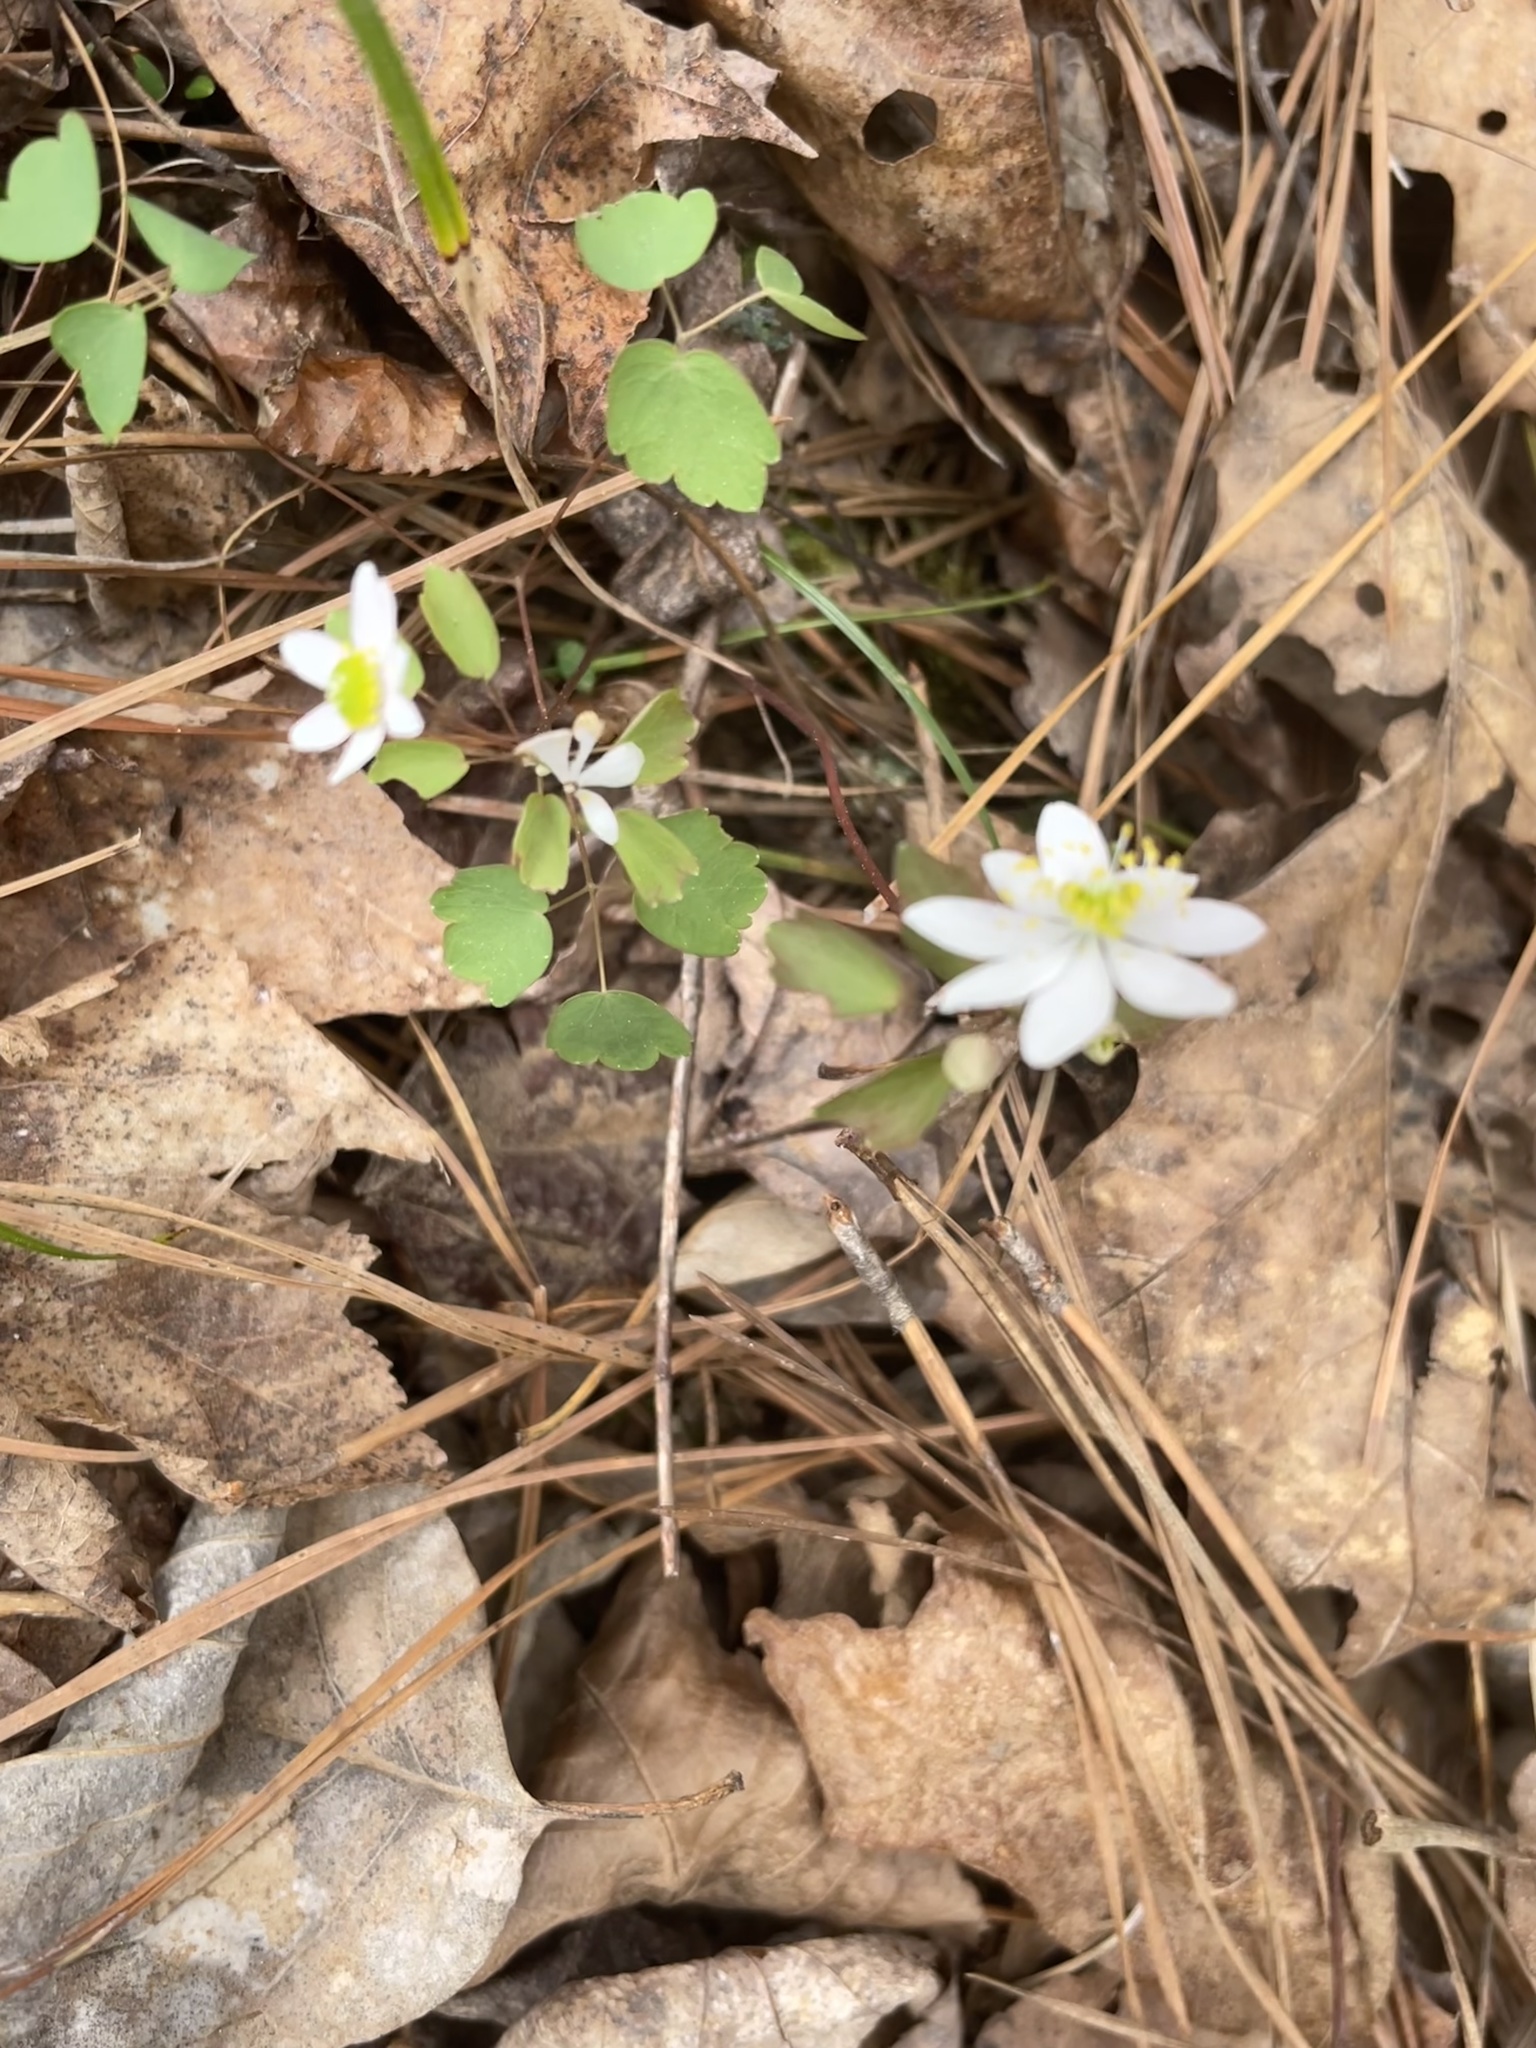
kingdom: Plantae
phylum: Tracheophyta
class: Magnoliopsida
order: Ranunculales
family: Ranunculaceae
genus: Thalictrum
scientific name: Thalictrum thalictroides
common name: Rue-anemone
